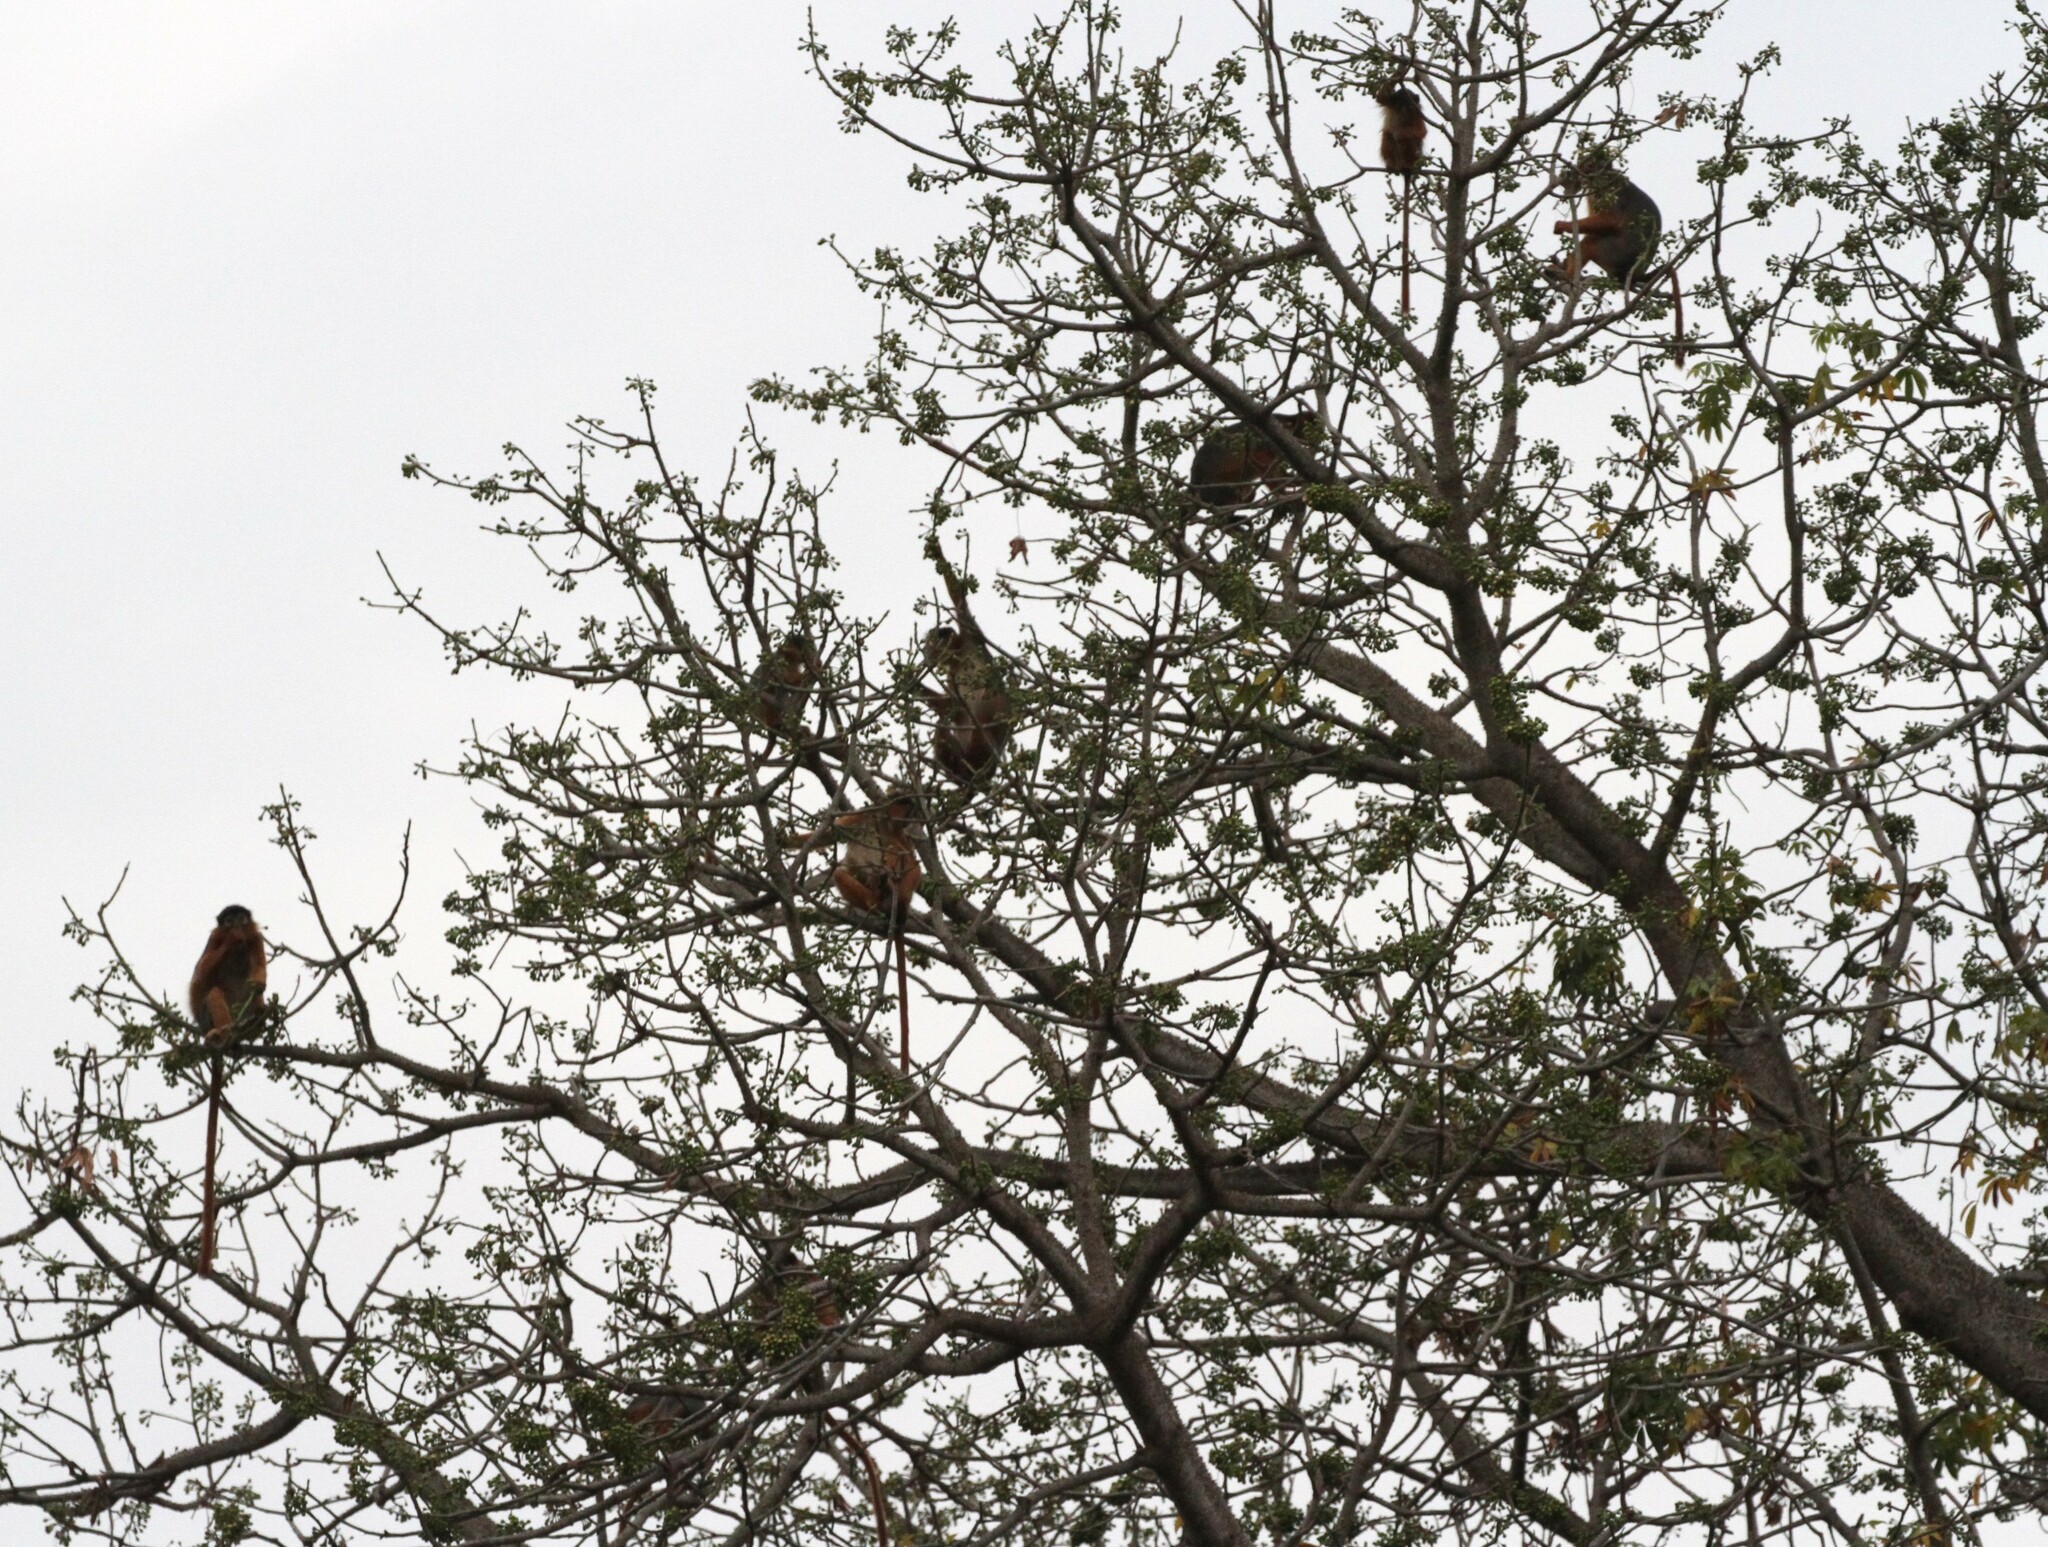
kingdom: Animalia
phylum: Chordata
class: Mammalia
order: Primates
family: Cercopithecidae
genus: Piliocolobus
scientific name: Piliocolobus badius
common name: Western red colobus
